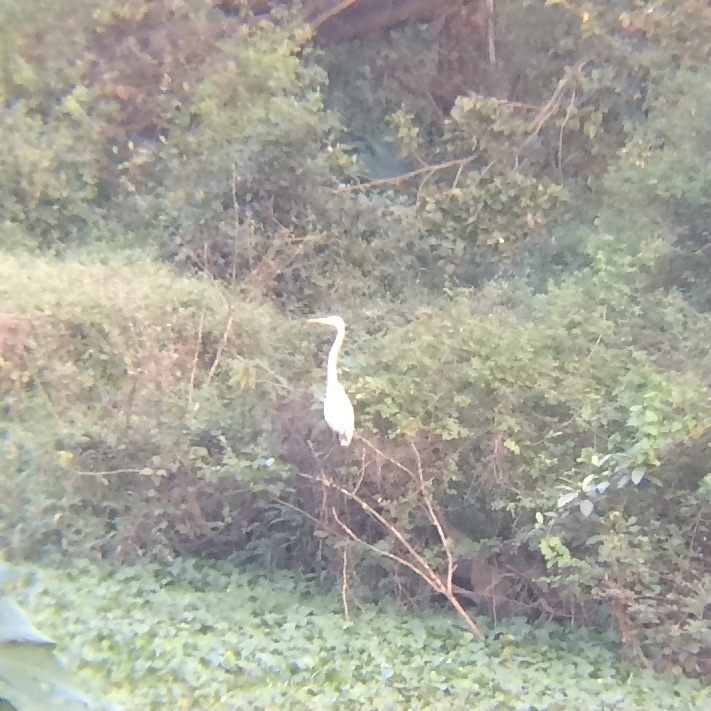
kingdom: Animalia
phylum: Chordata
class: Aves
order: Pelecaniformes
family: Ardeidae
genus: Ardea
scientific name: Ardea alba
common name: Great egret
